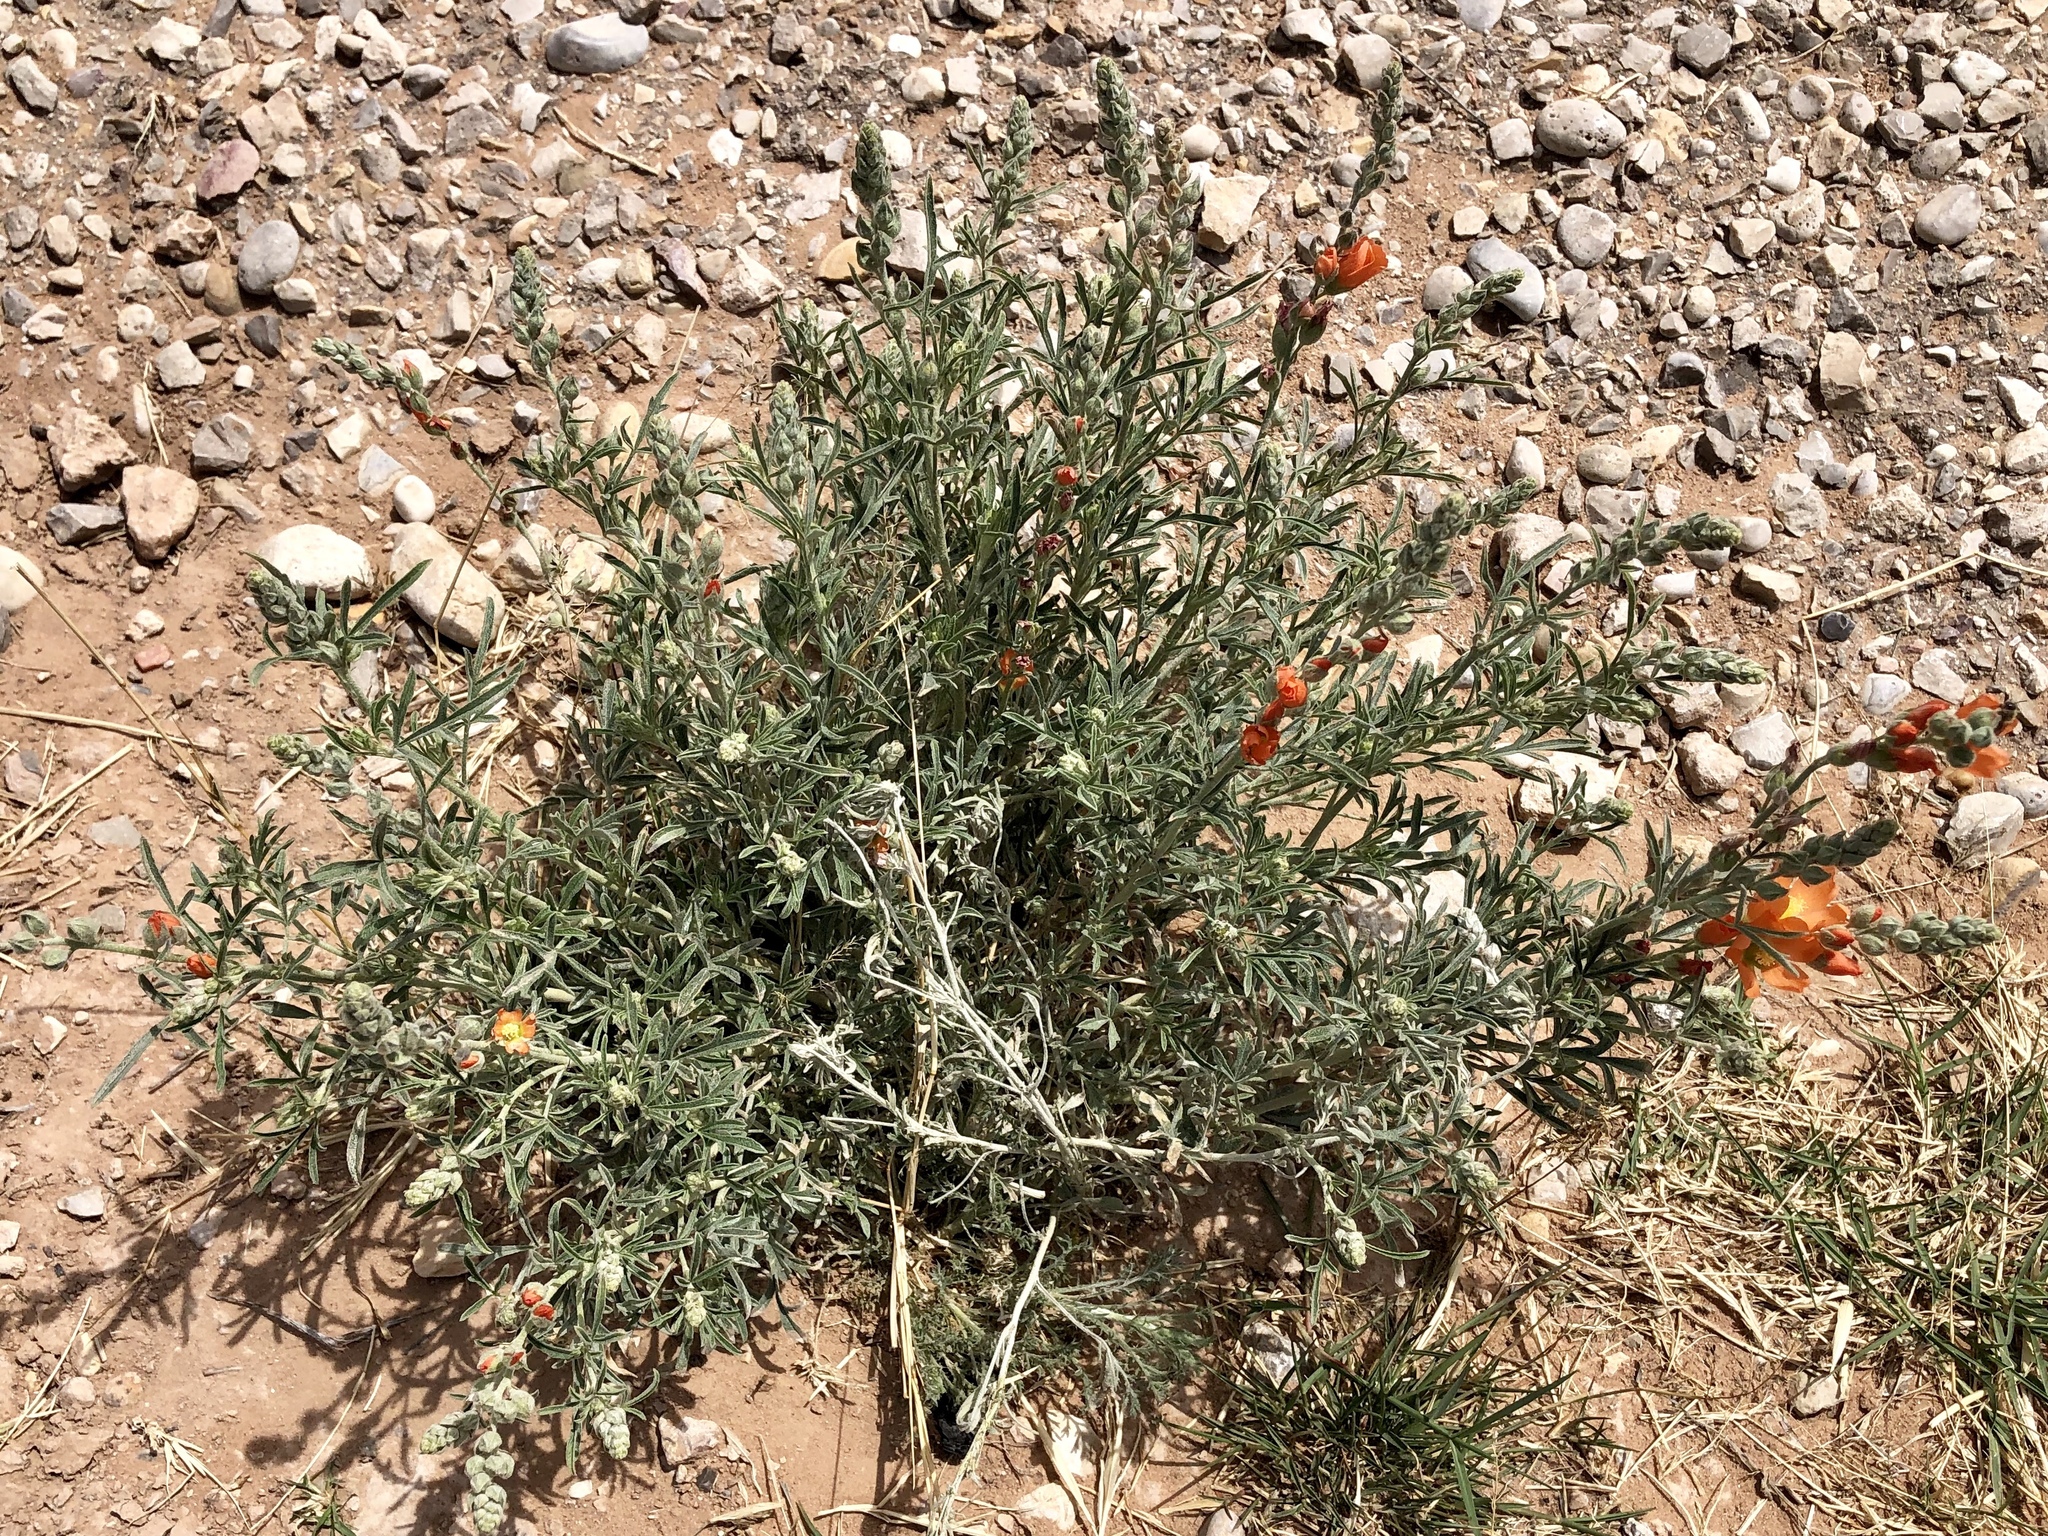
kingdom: Plantae
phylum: Tracheophyta
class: Magnoliopsida
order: Malvales
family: Malvaceae
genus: Sphaeralcea
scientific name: Sphaeralcea coccinea
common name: Moss-rose
